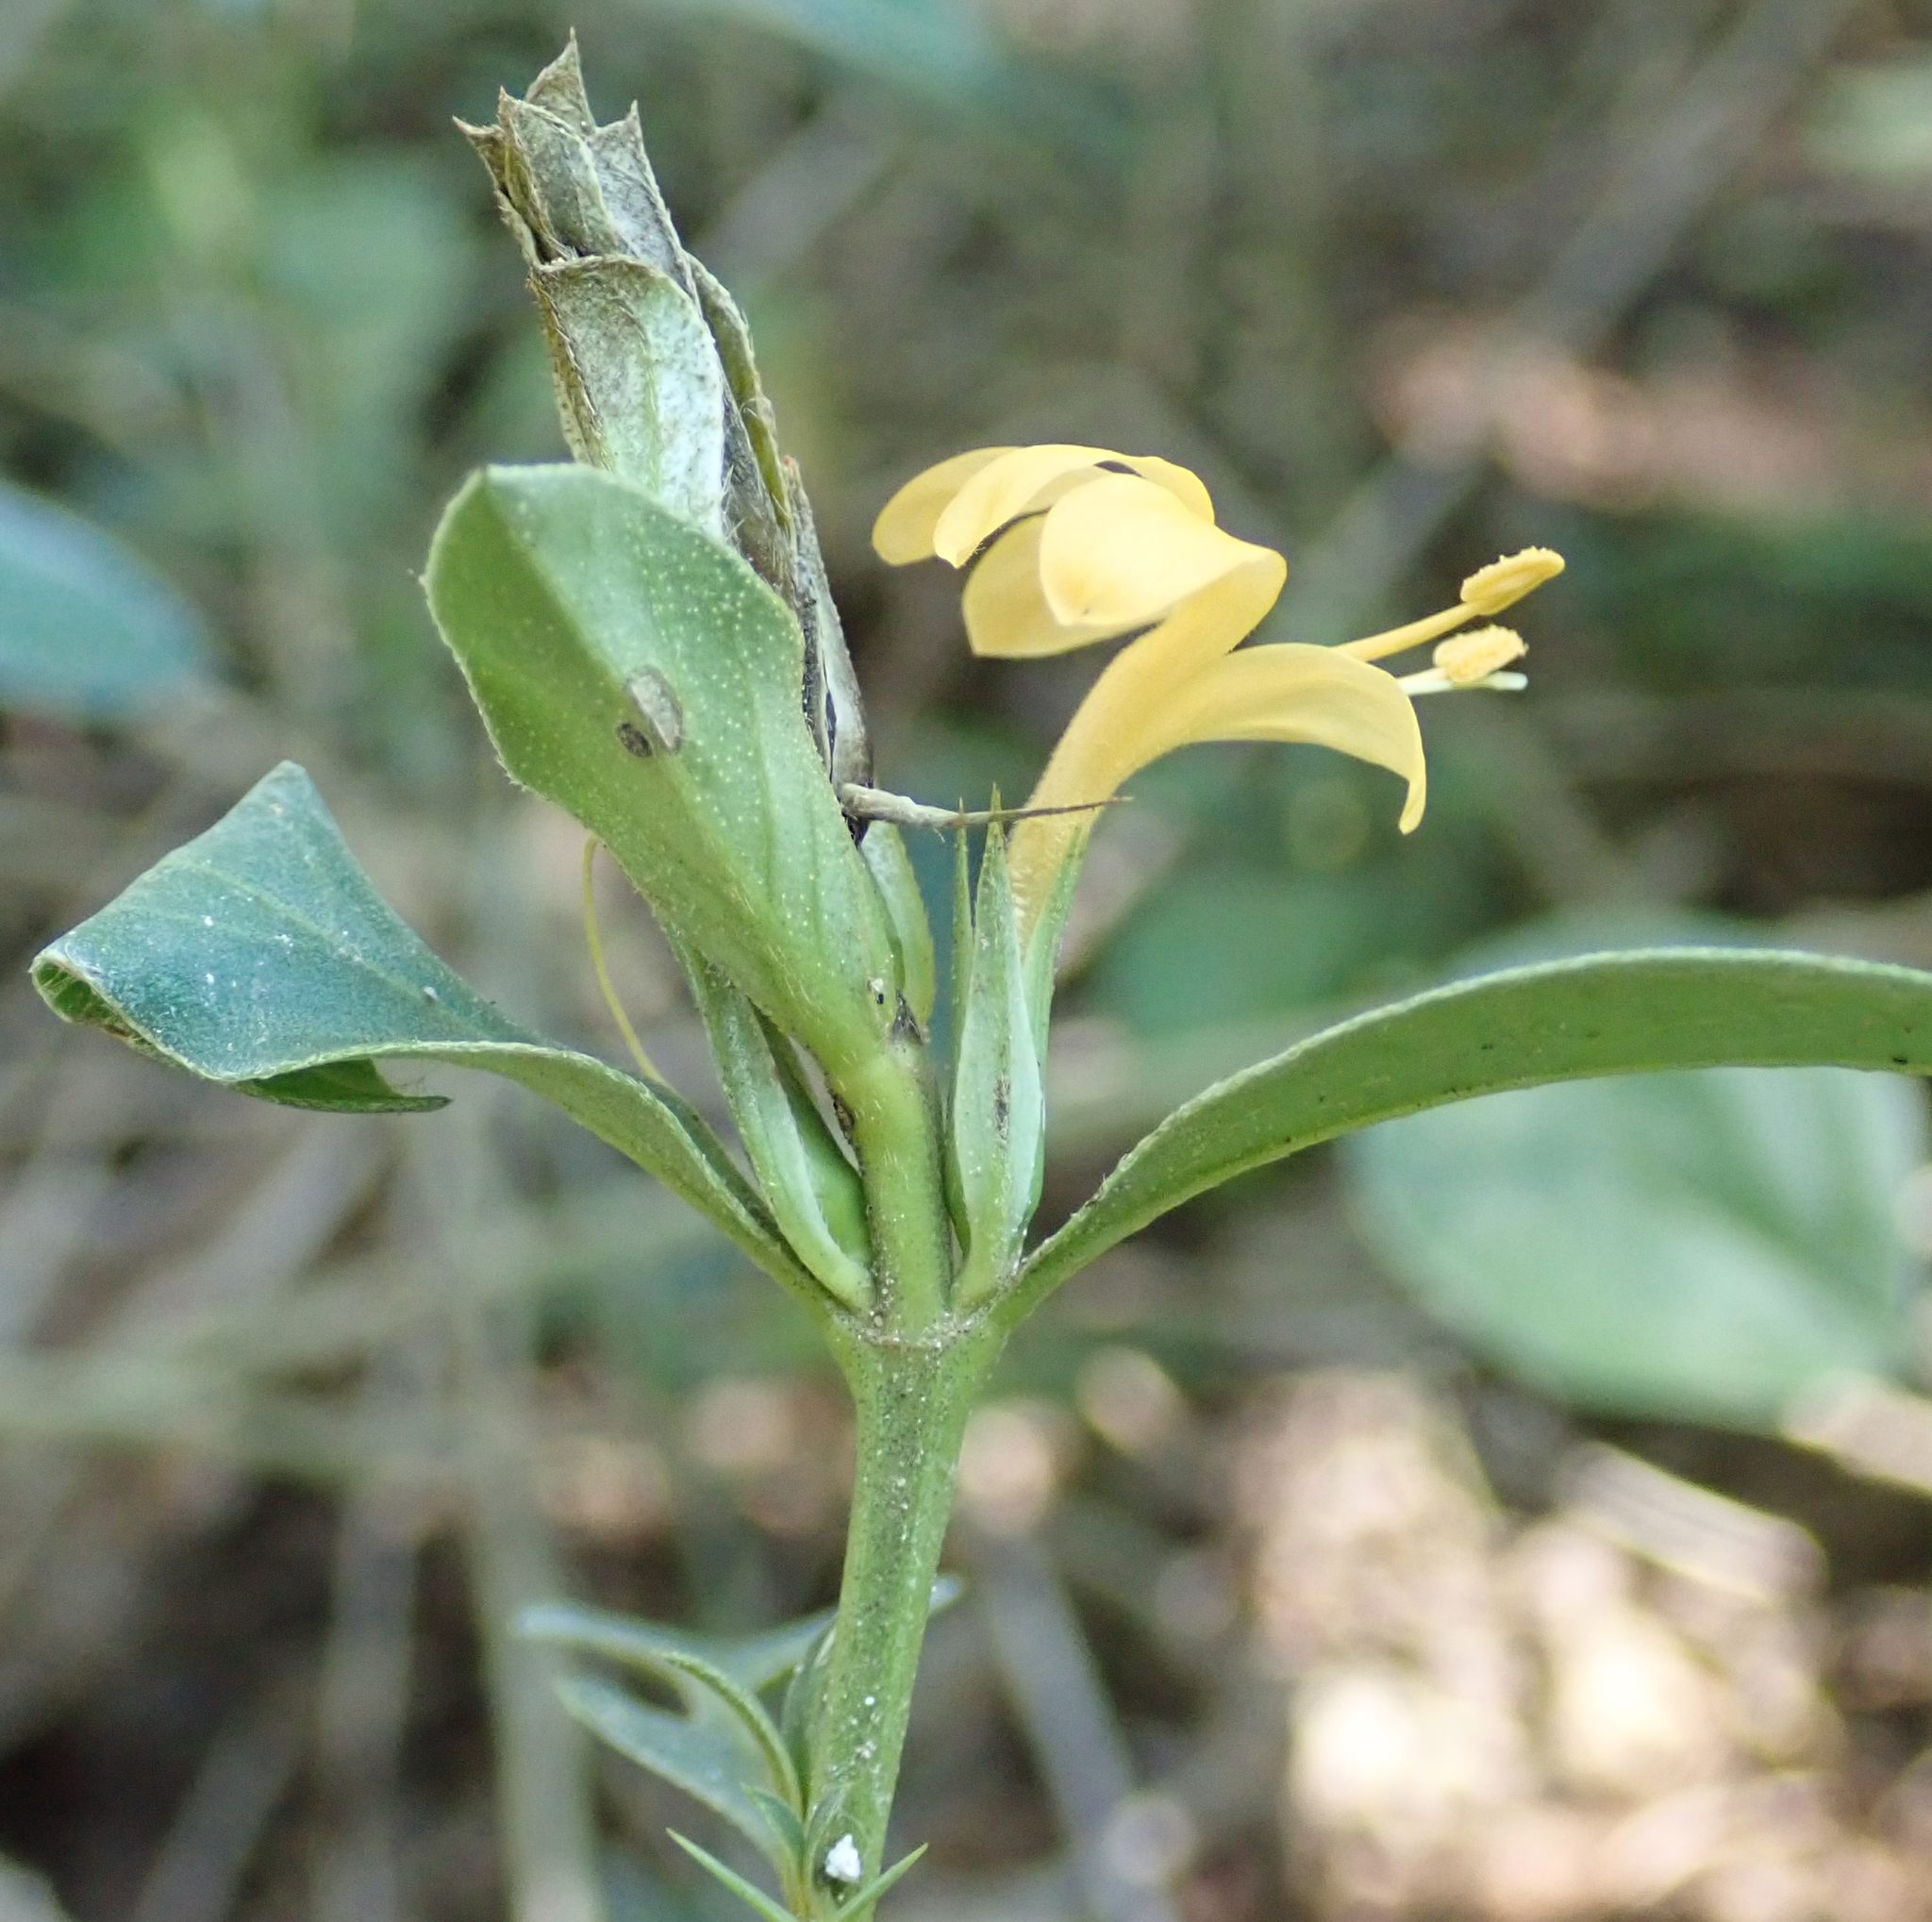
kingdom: Plantae
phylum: Tracheophyta
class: Magnoliopsida
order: Lamiales
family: Acanthaceae
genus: Barleria
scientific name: Barleria senensis
